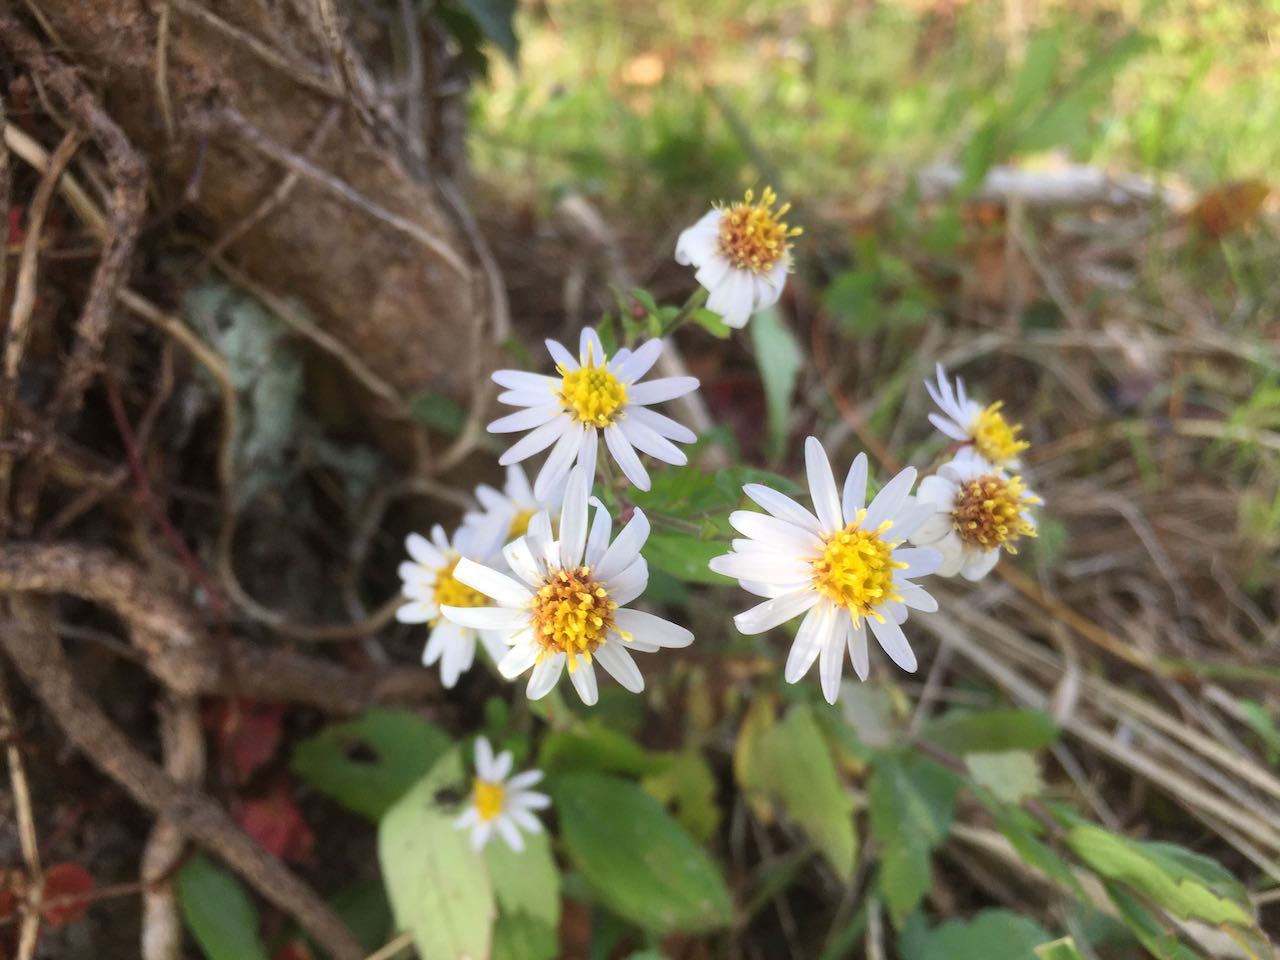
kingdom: Plantae
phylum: Tracheophyta
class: Magnoliopsida
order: Asterales
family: Asteraceae
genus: Aster
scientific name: Aster microcephalus
